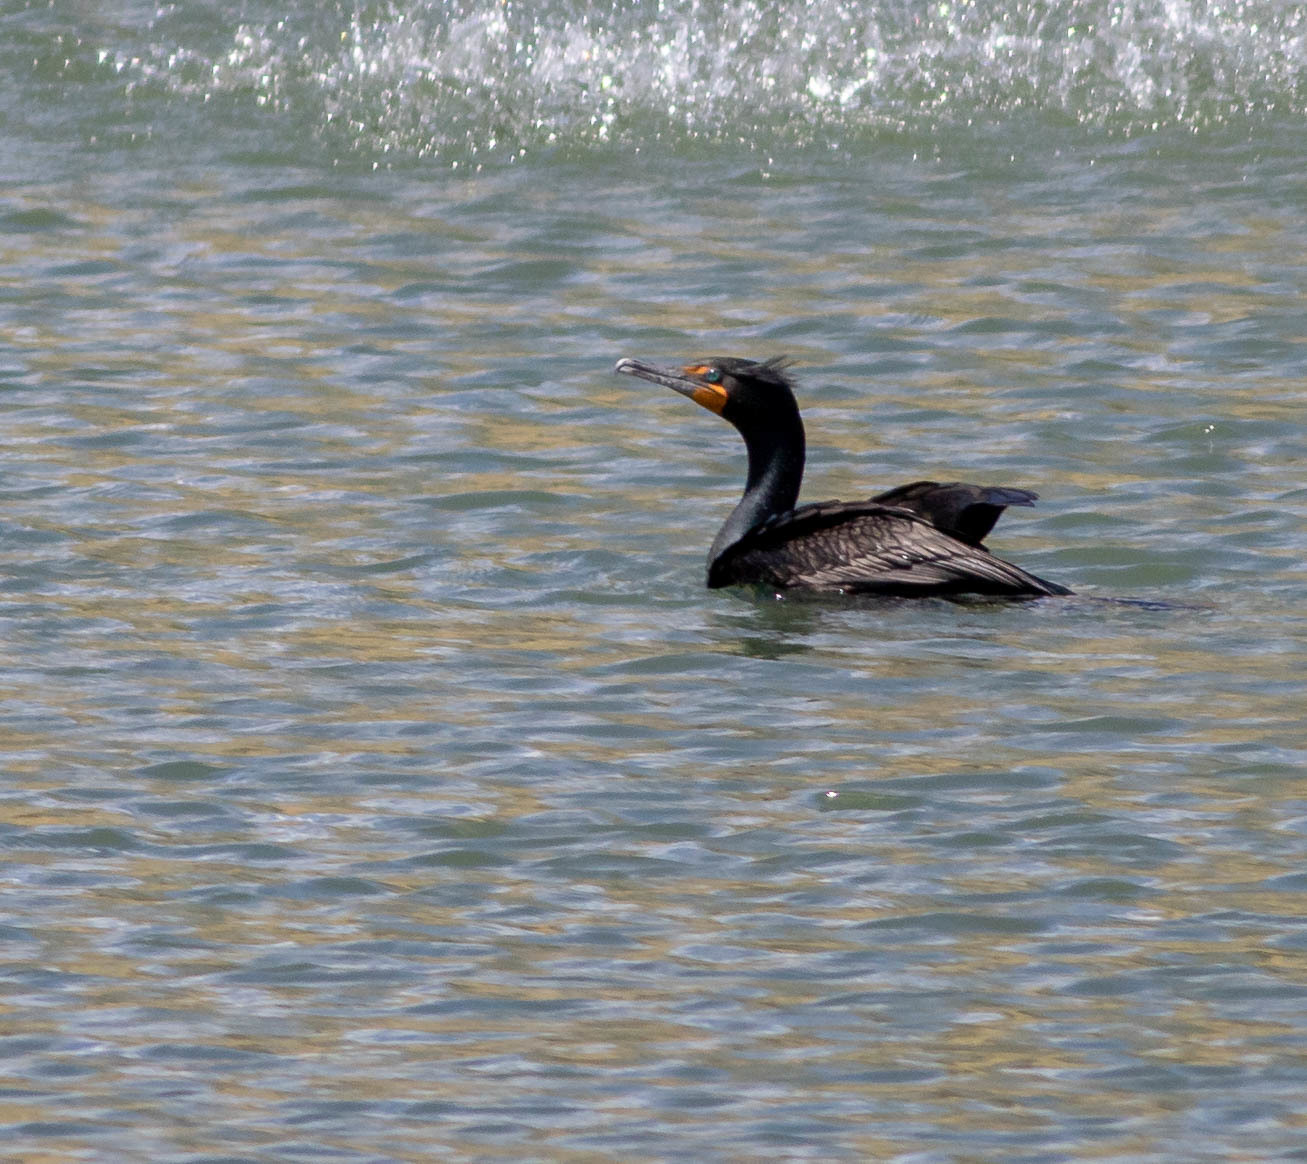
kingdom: Animalia
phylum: Chordata
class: Aves
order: Suliformes
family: Phalacrocoracidae
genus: Phalacrocorax
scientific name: Phalacrocorax auritus
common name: Double-crested cormorant
